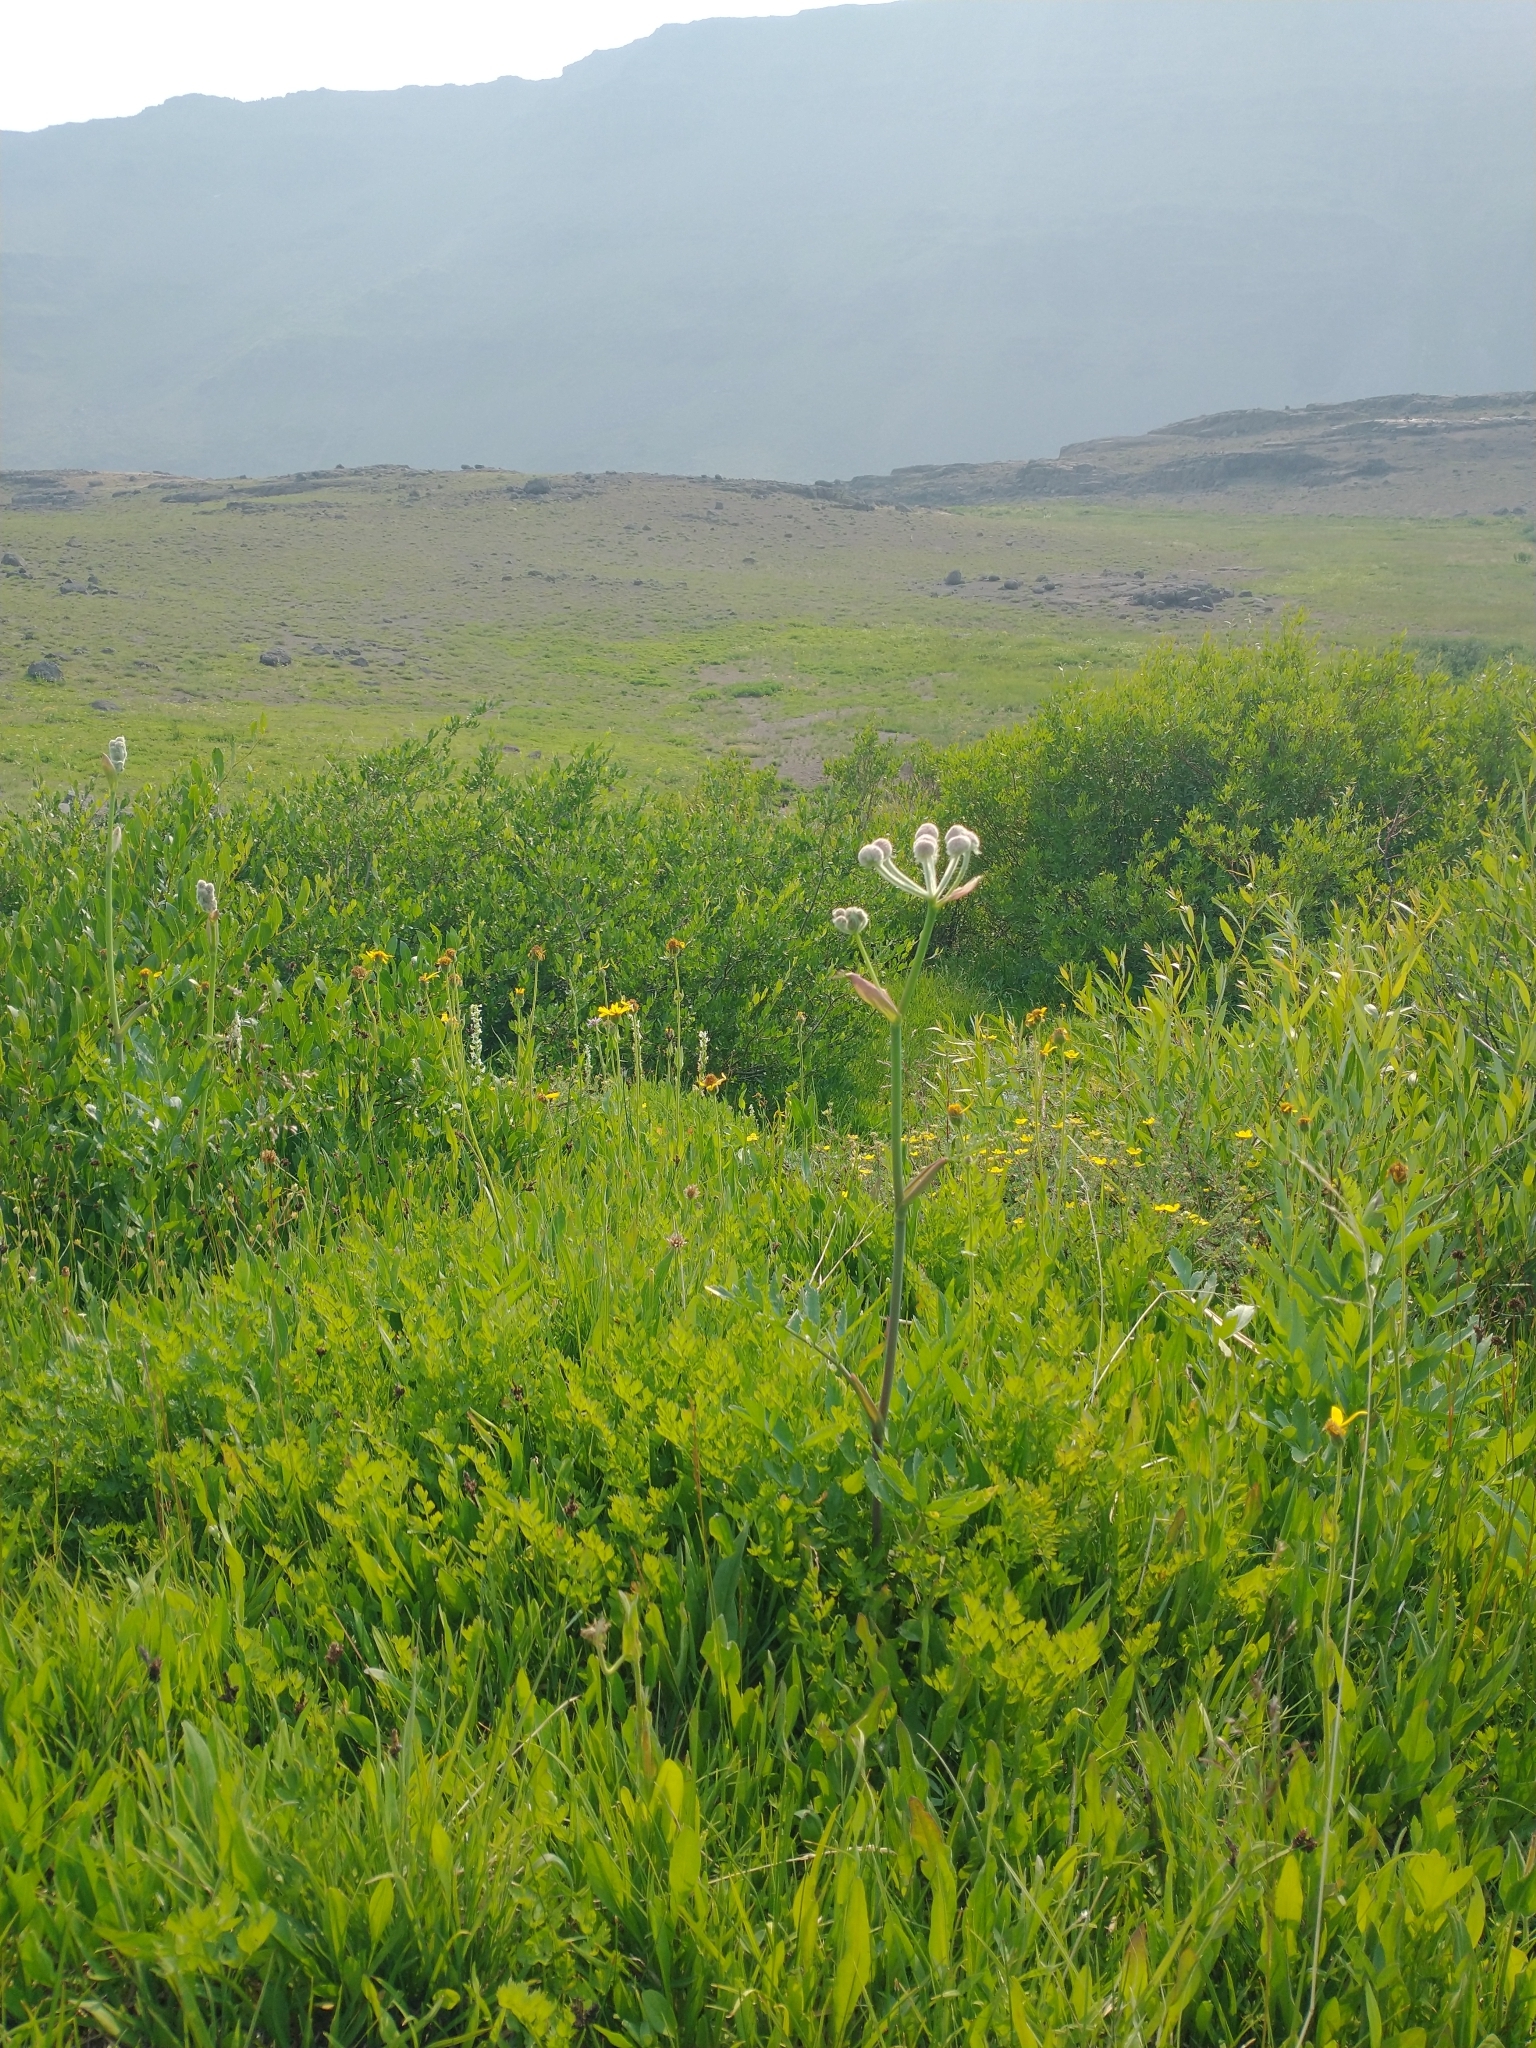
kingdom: Plantae
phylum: Tracheophyta
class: Magnoliopsida
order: Apiales
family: Apiaceae
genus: Angelica
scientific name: Angelica capitellata
